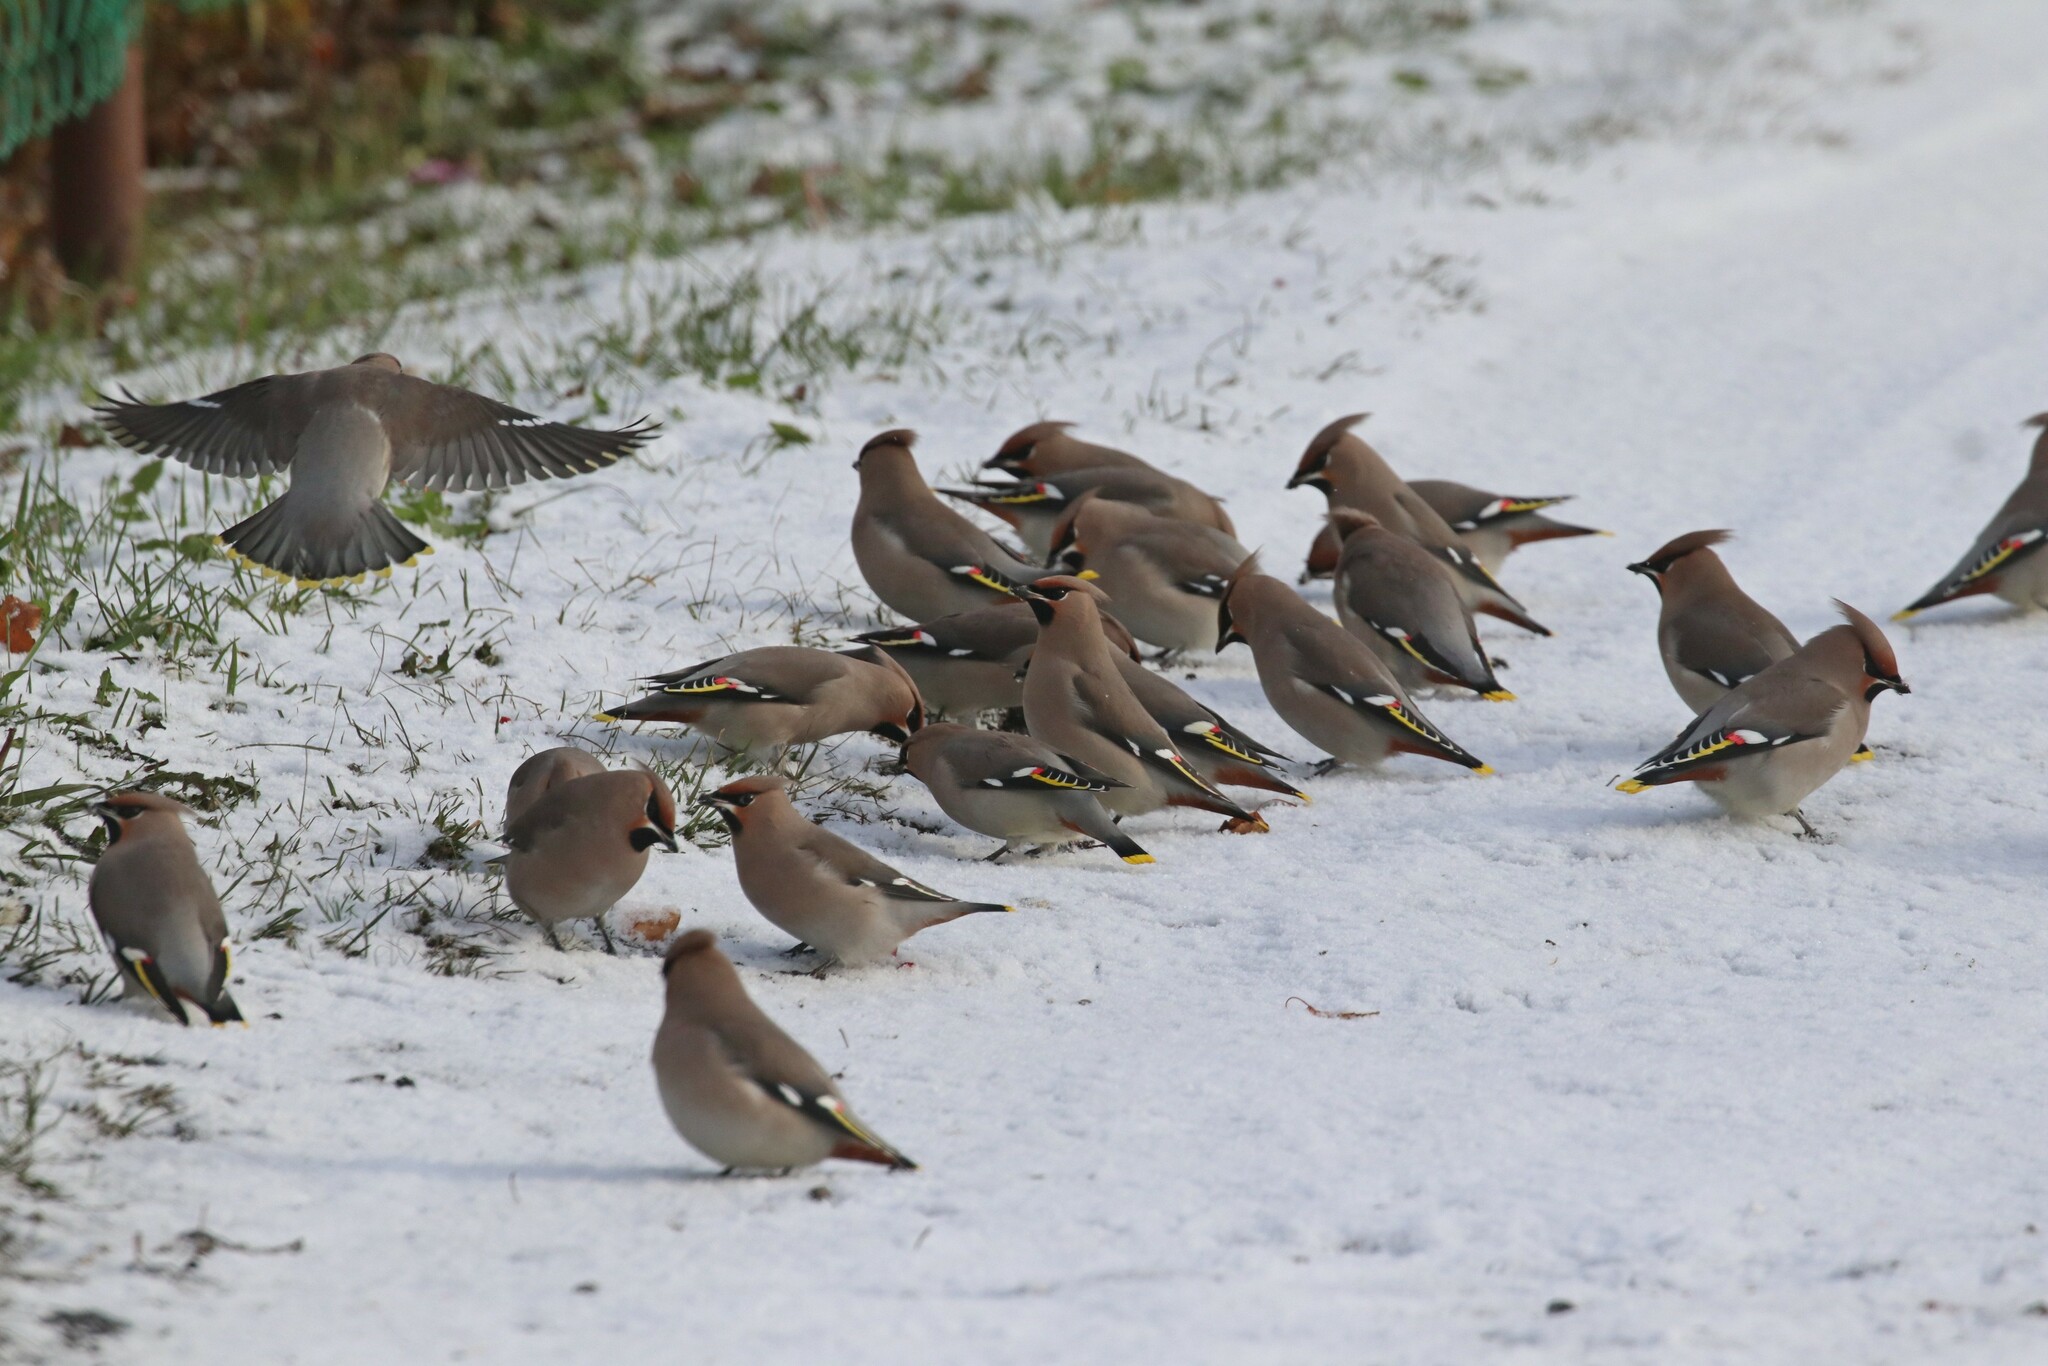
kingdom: Animalia
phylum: Chordata
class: Aves
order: Passeriformes
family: Bombycillidae
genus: Bombycilla
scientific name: Bombycilla garrulus
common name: Bohemian waxwing
